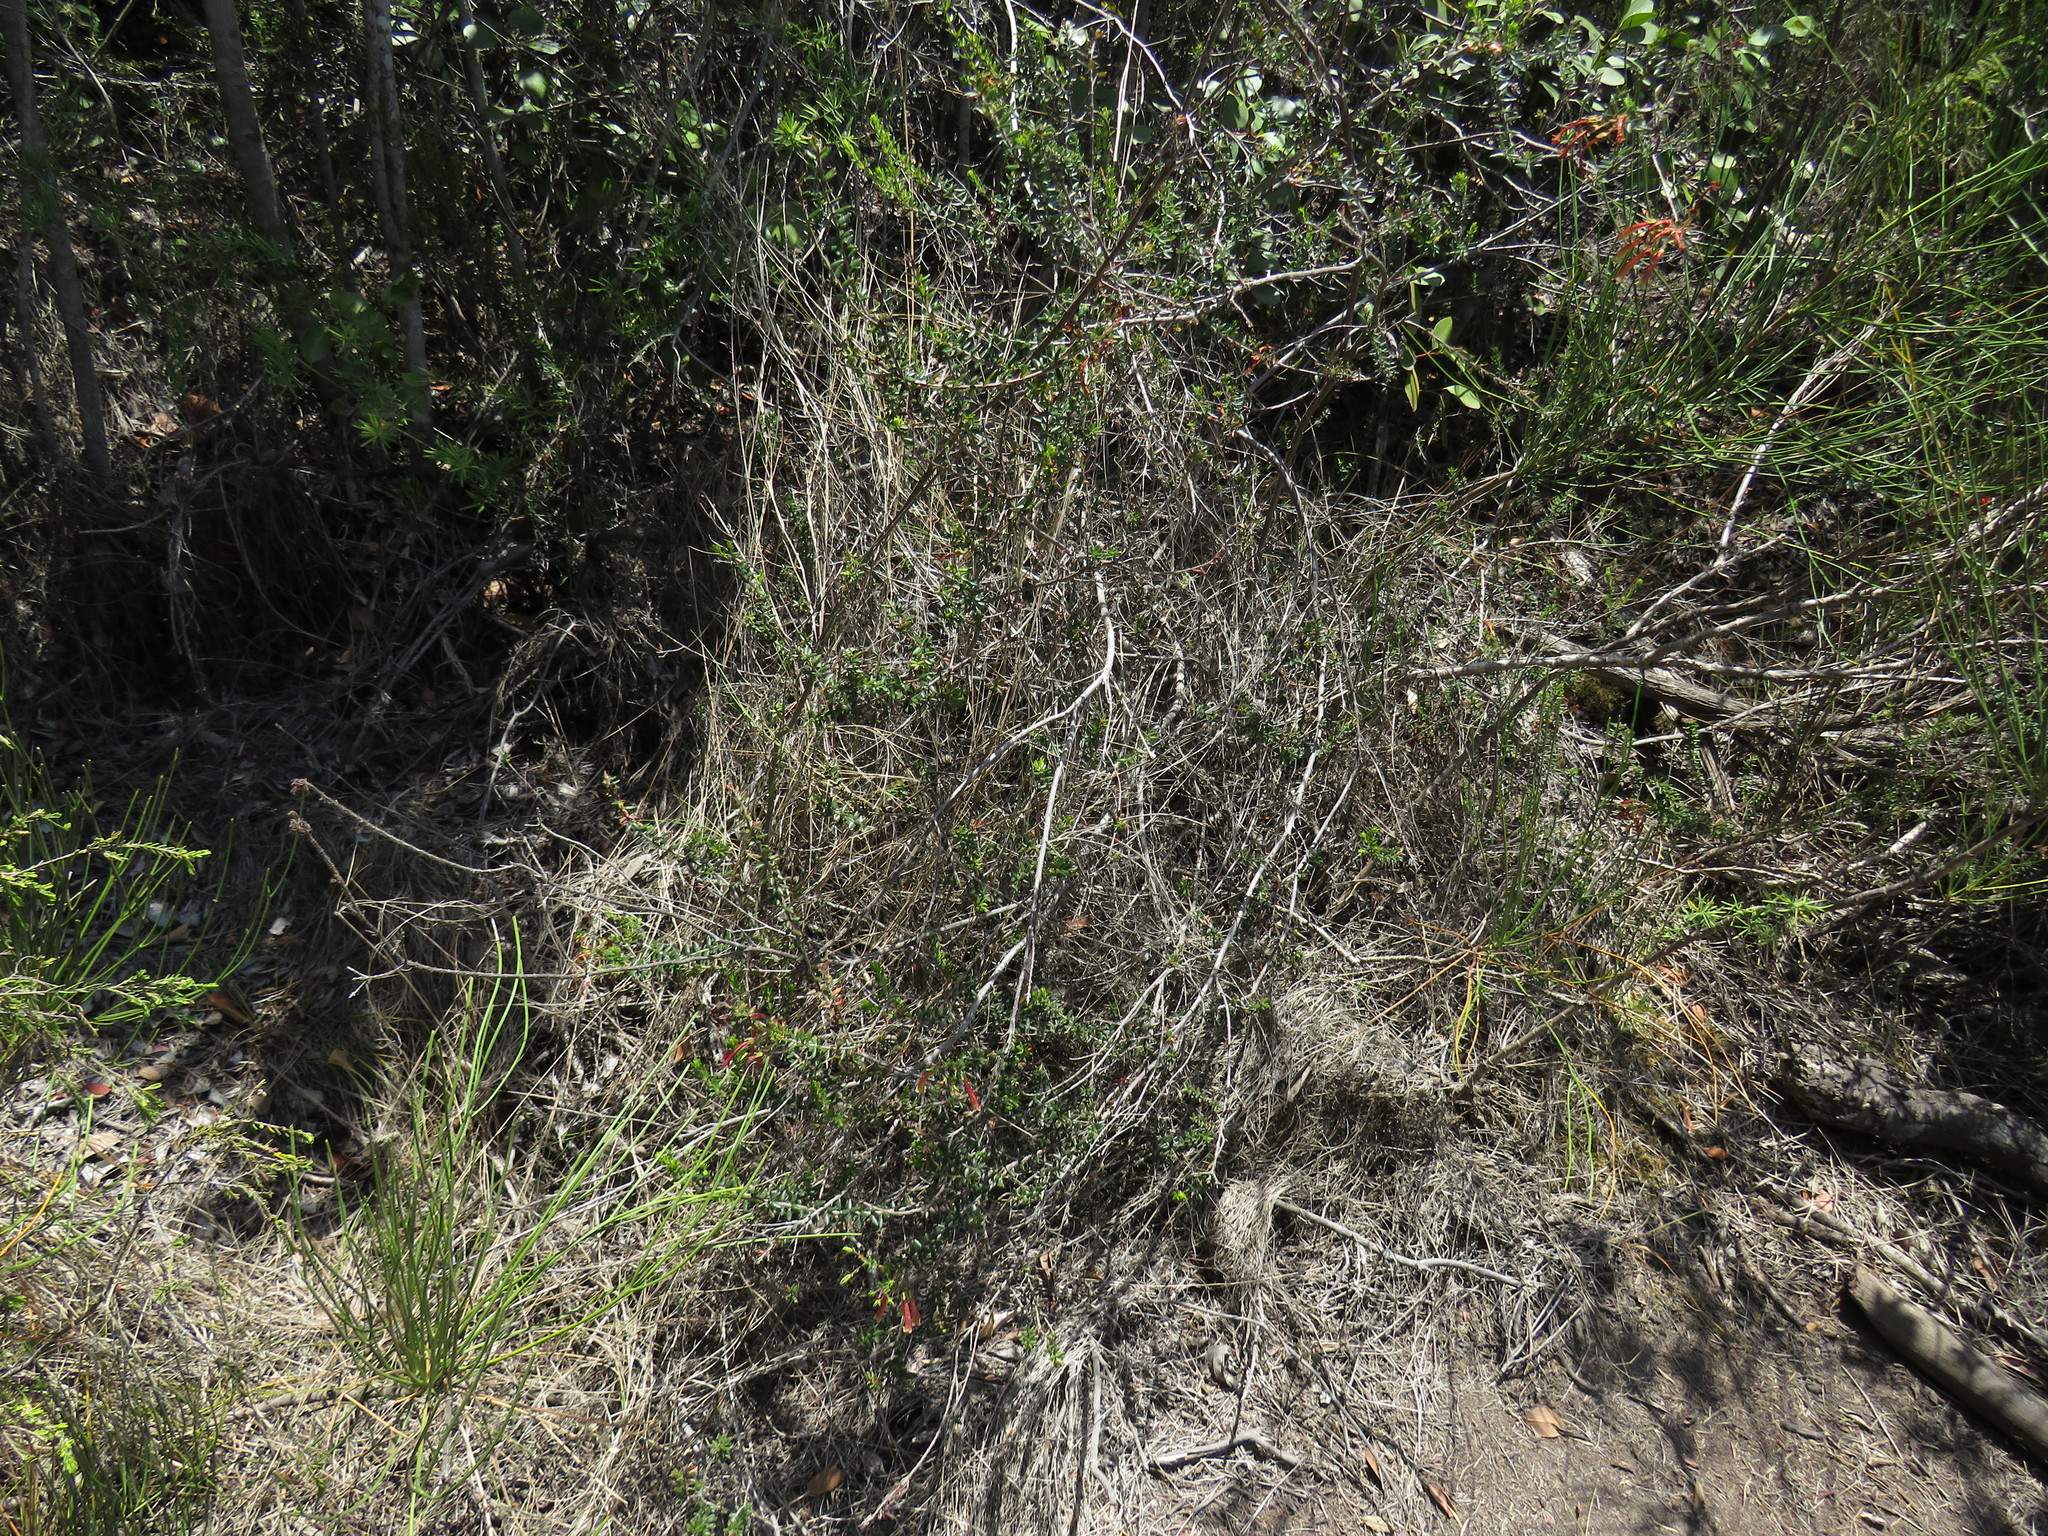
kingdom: Plantae
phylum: Tracheophyta
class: Magnoliopsida
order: Ericales
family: Ericaceae
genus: Erica
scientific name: Erica glandulosa
